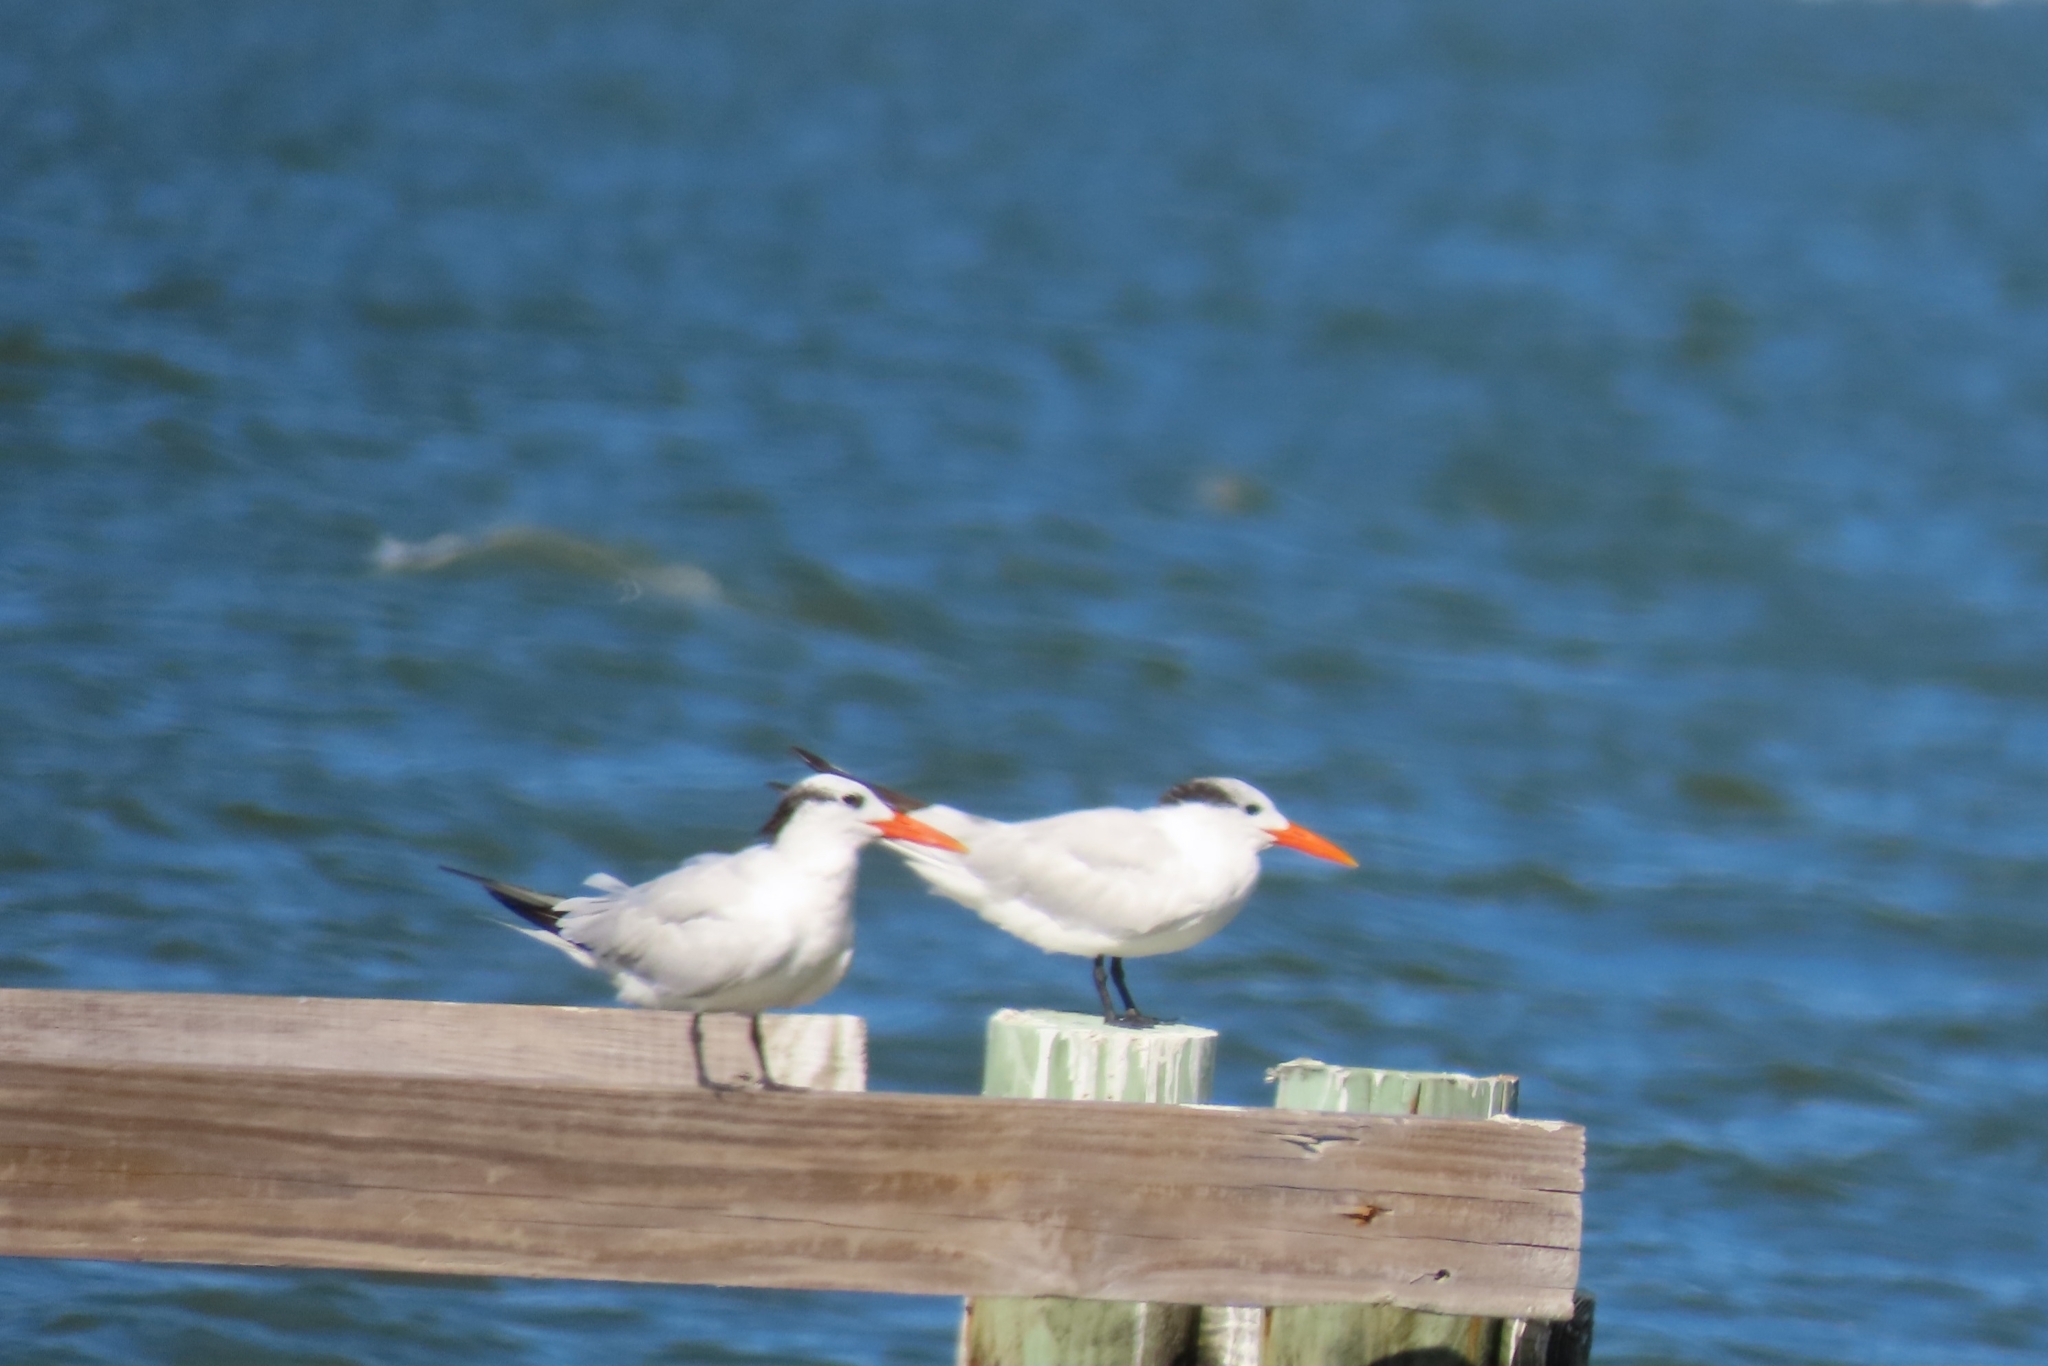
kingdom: Animalia
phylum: Chordata
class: Aves
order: Charadriiformes
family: Laridae
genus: Thalasseus
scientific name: Thalasseus maximus
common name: Royal tern
